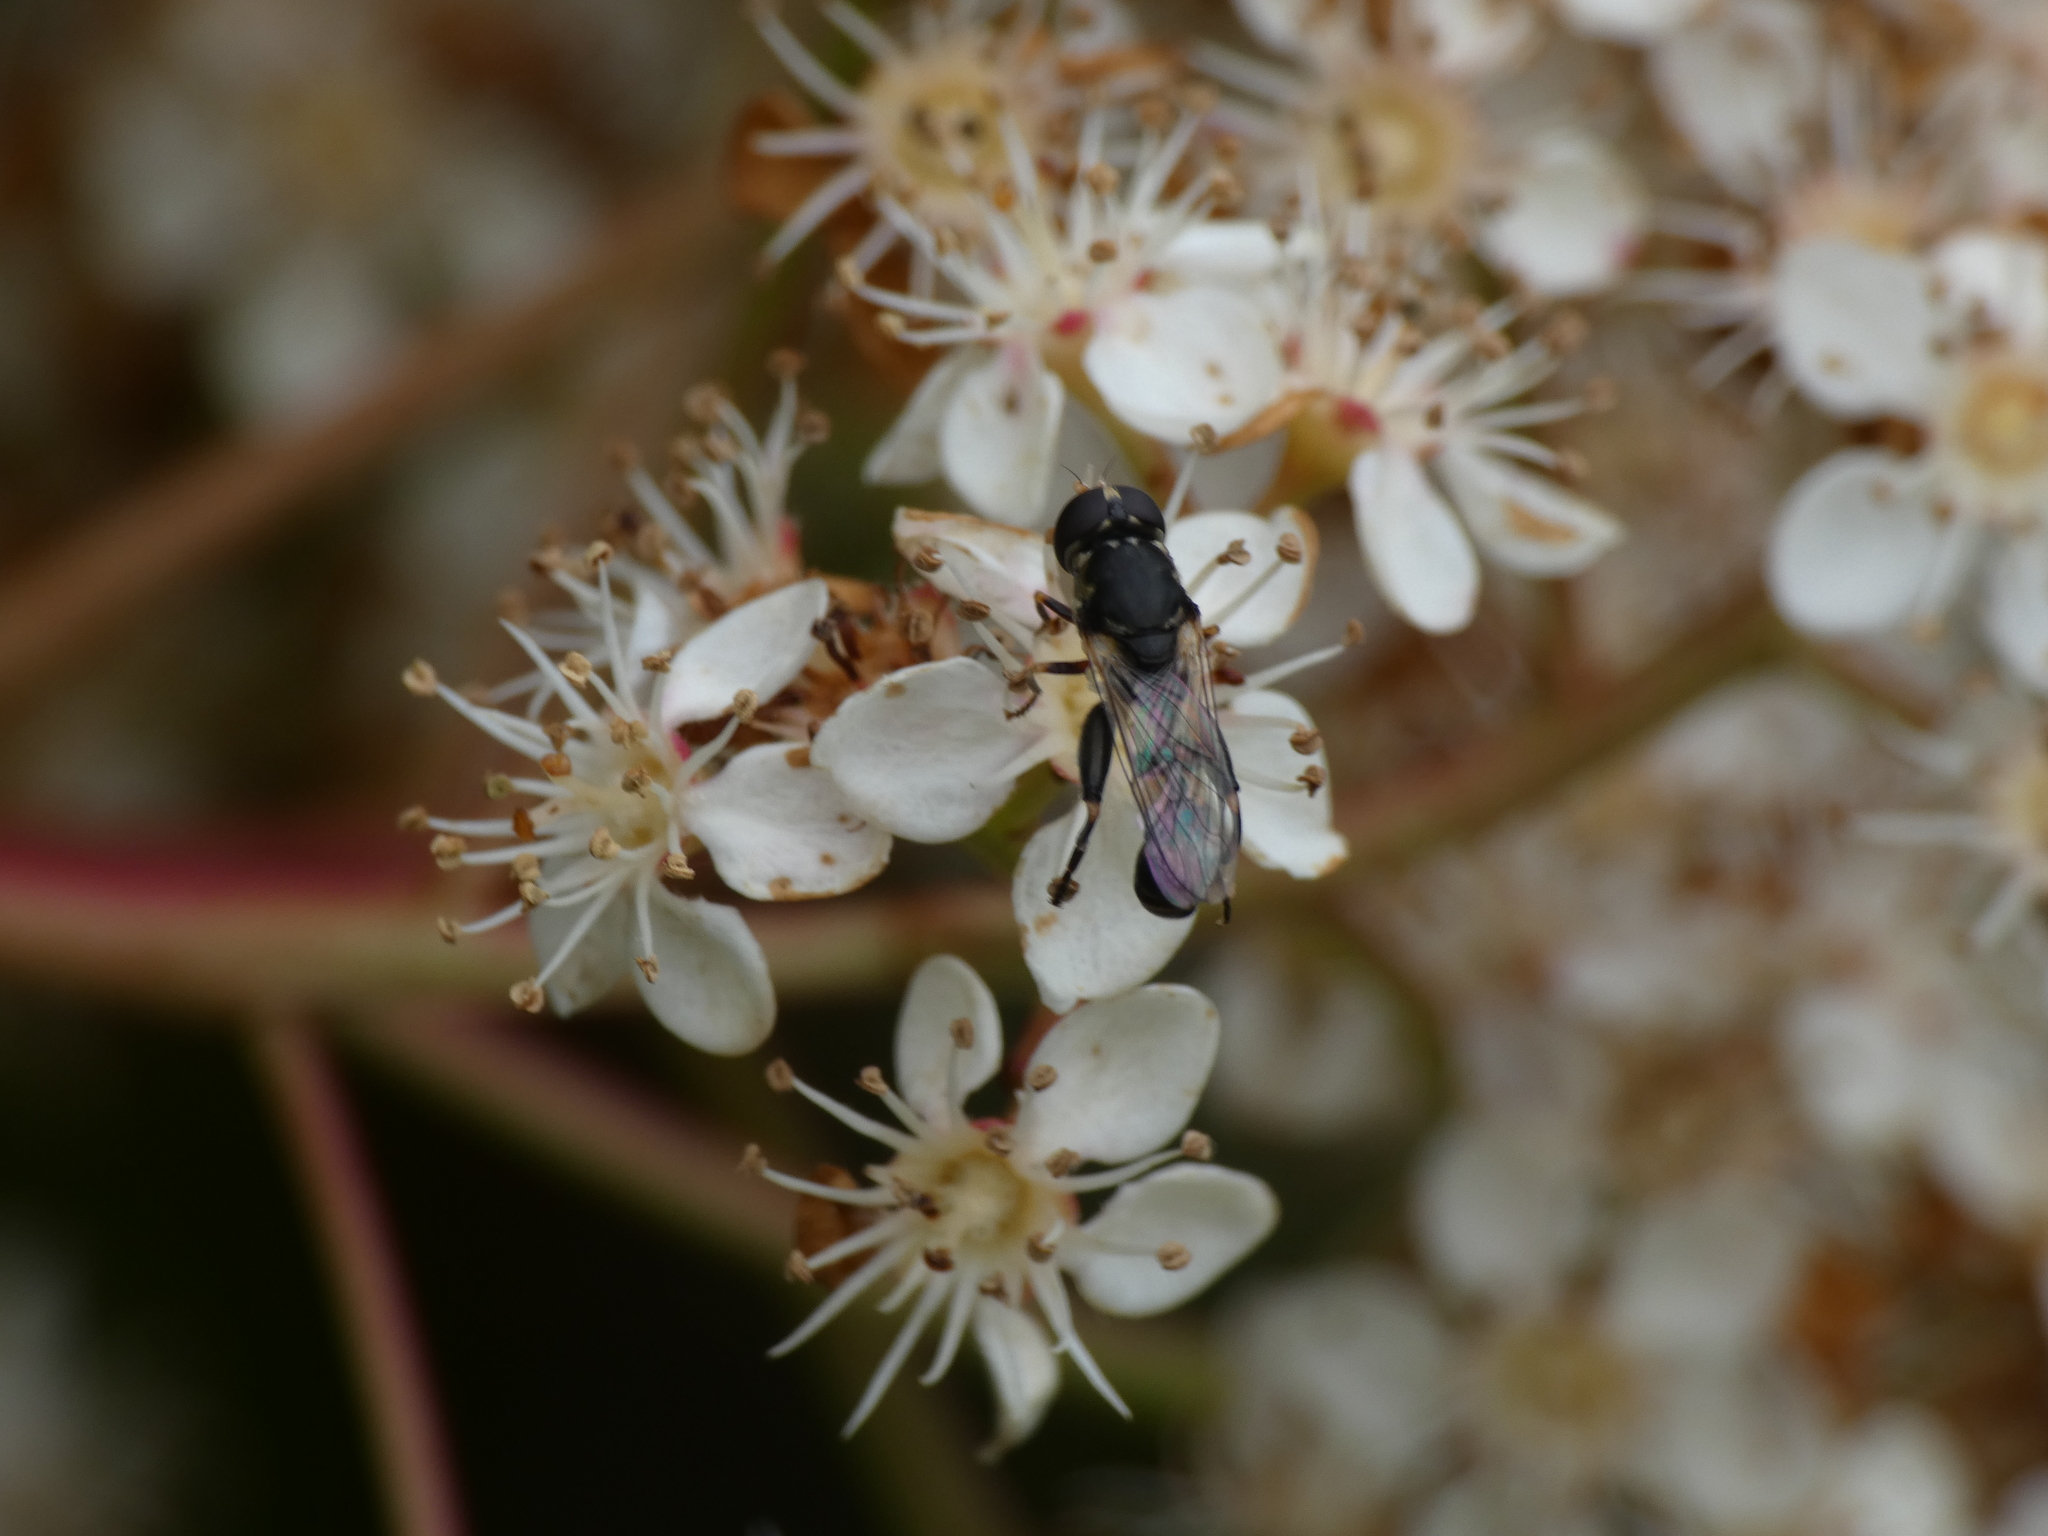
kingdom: Animalia
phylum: Arthropoda
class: Insecta
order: Diptera
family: Syrphidae
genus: Syritta
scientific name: Syritta pipiens
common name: Hover fly
